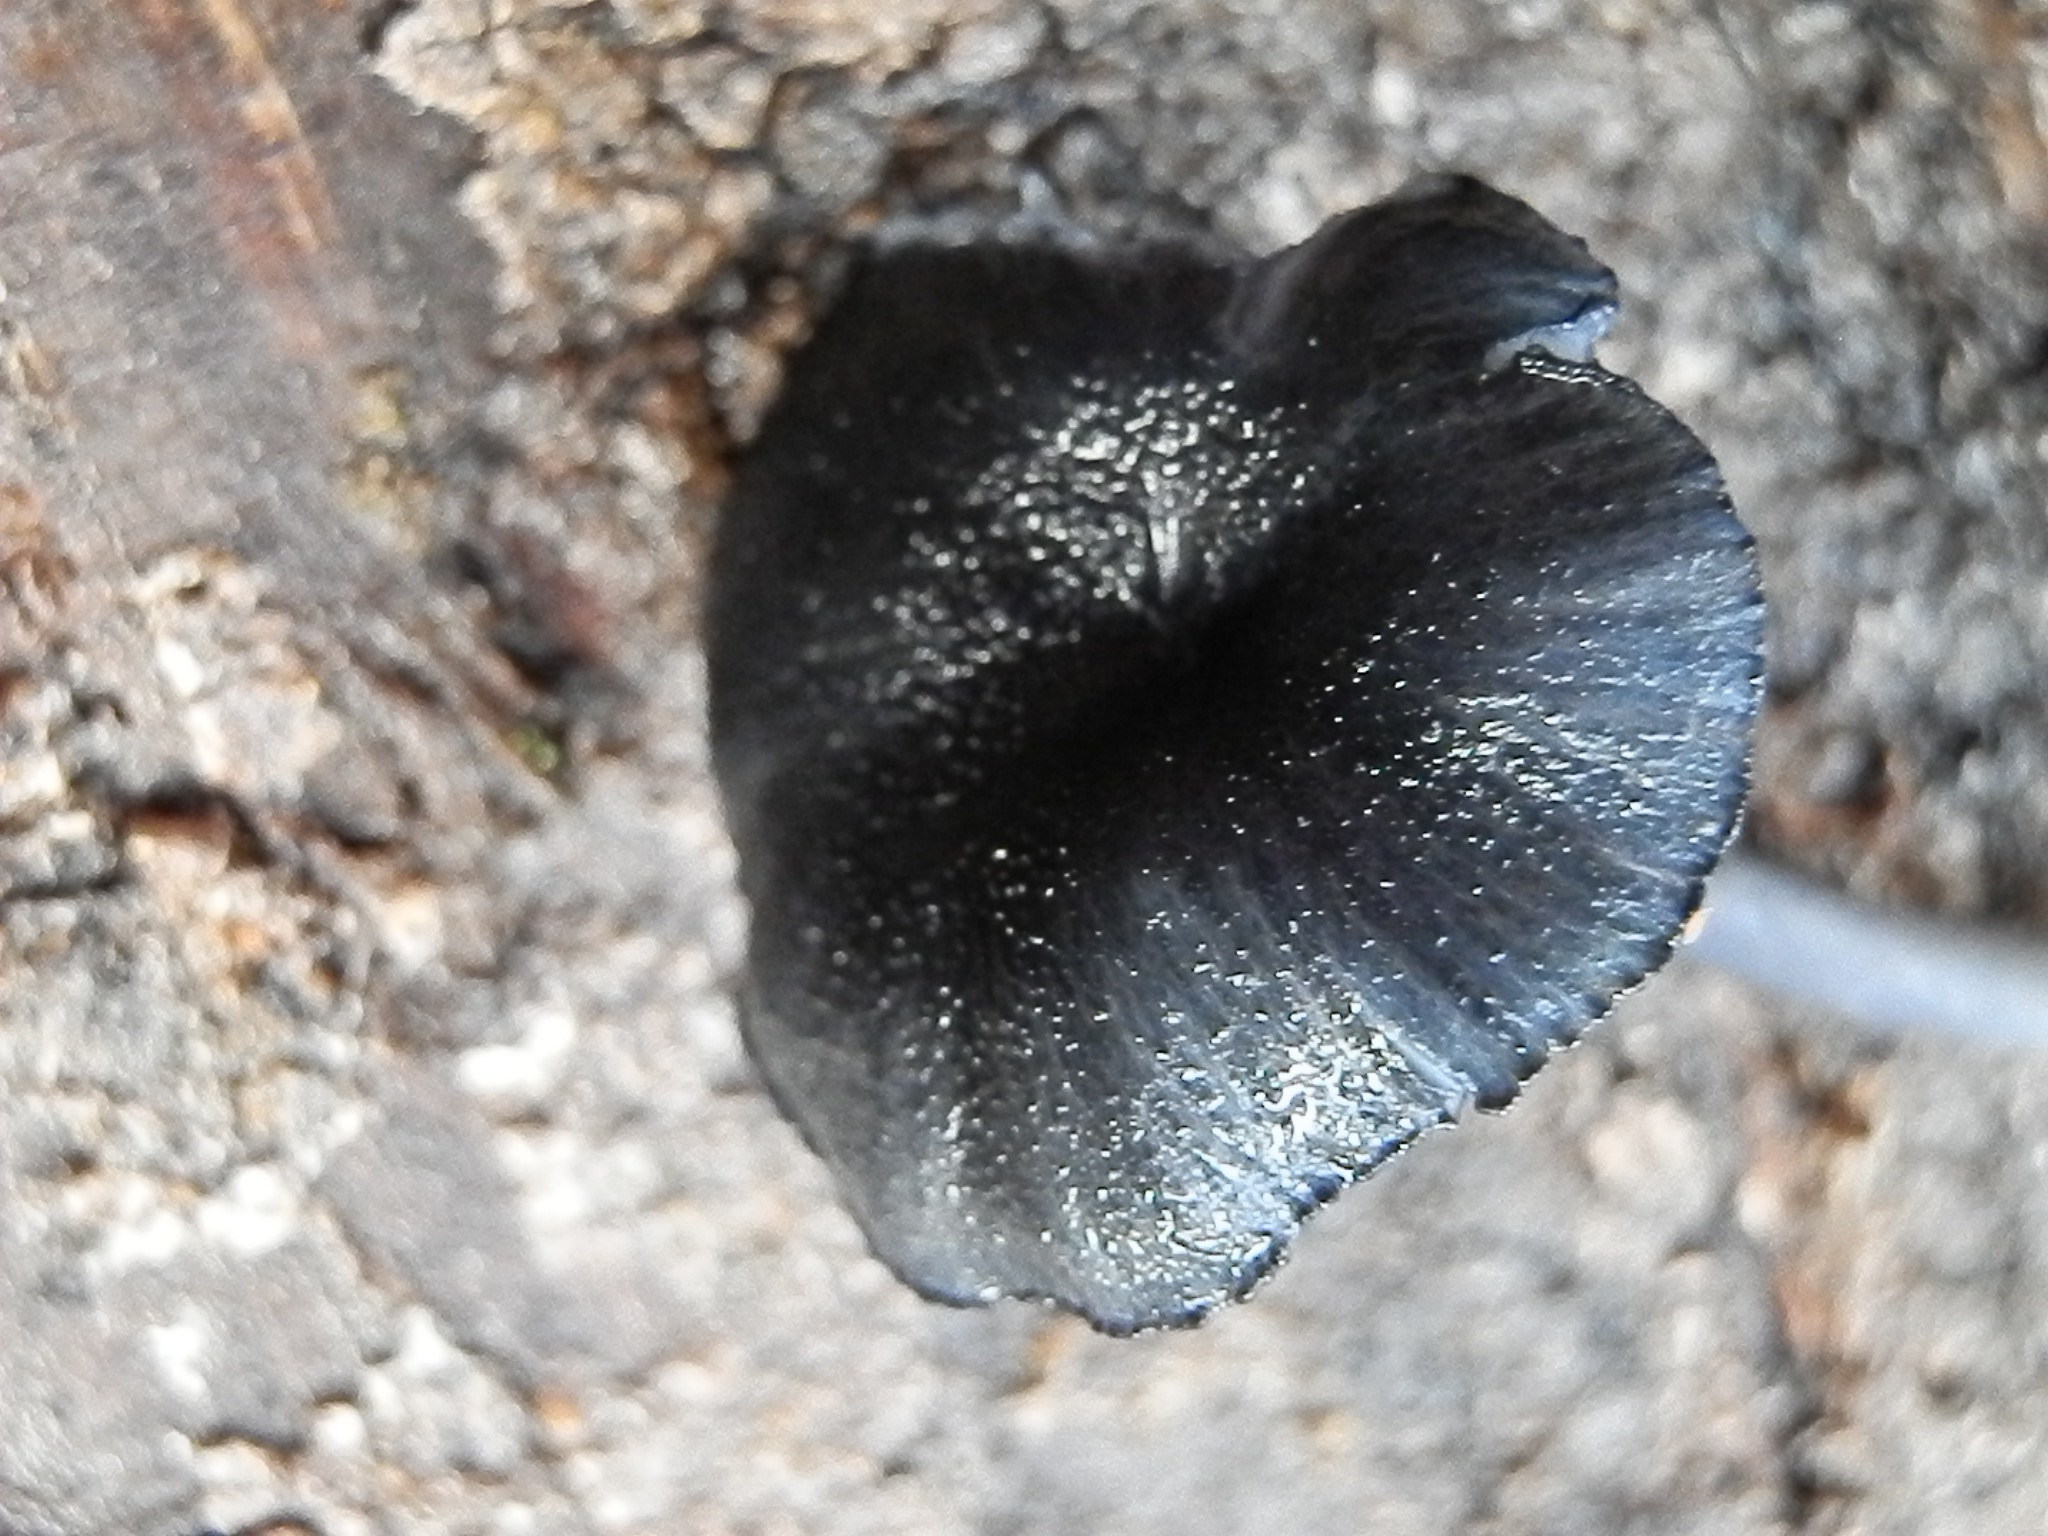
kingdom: Fungi
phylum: Basidiomycota
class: Agaricomycetes
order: Agaricales
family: Entolomataceae
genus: Entoloma
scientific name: Entoloma serrulatum
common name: Blue edge pinkgill
